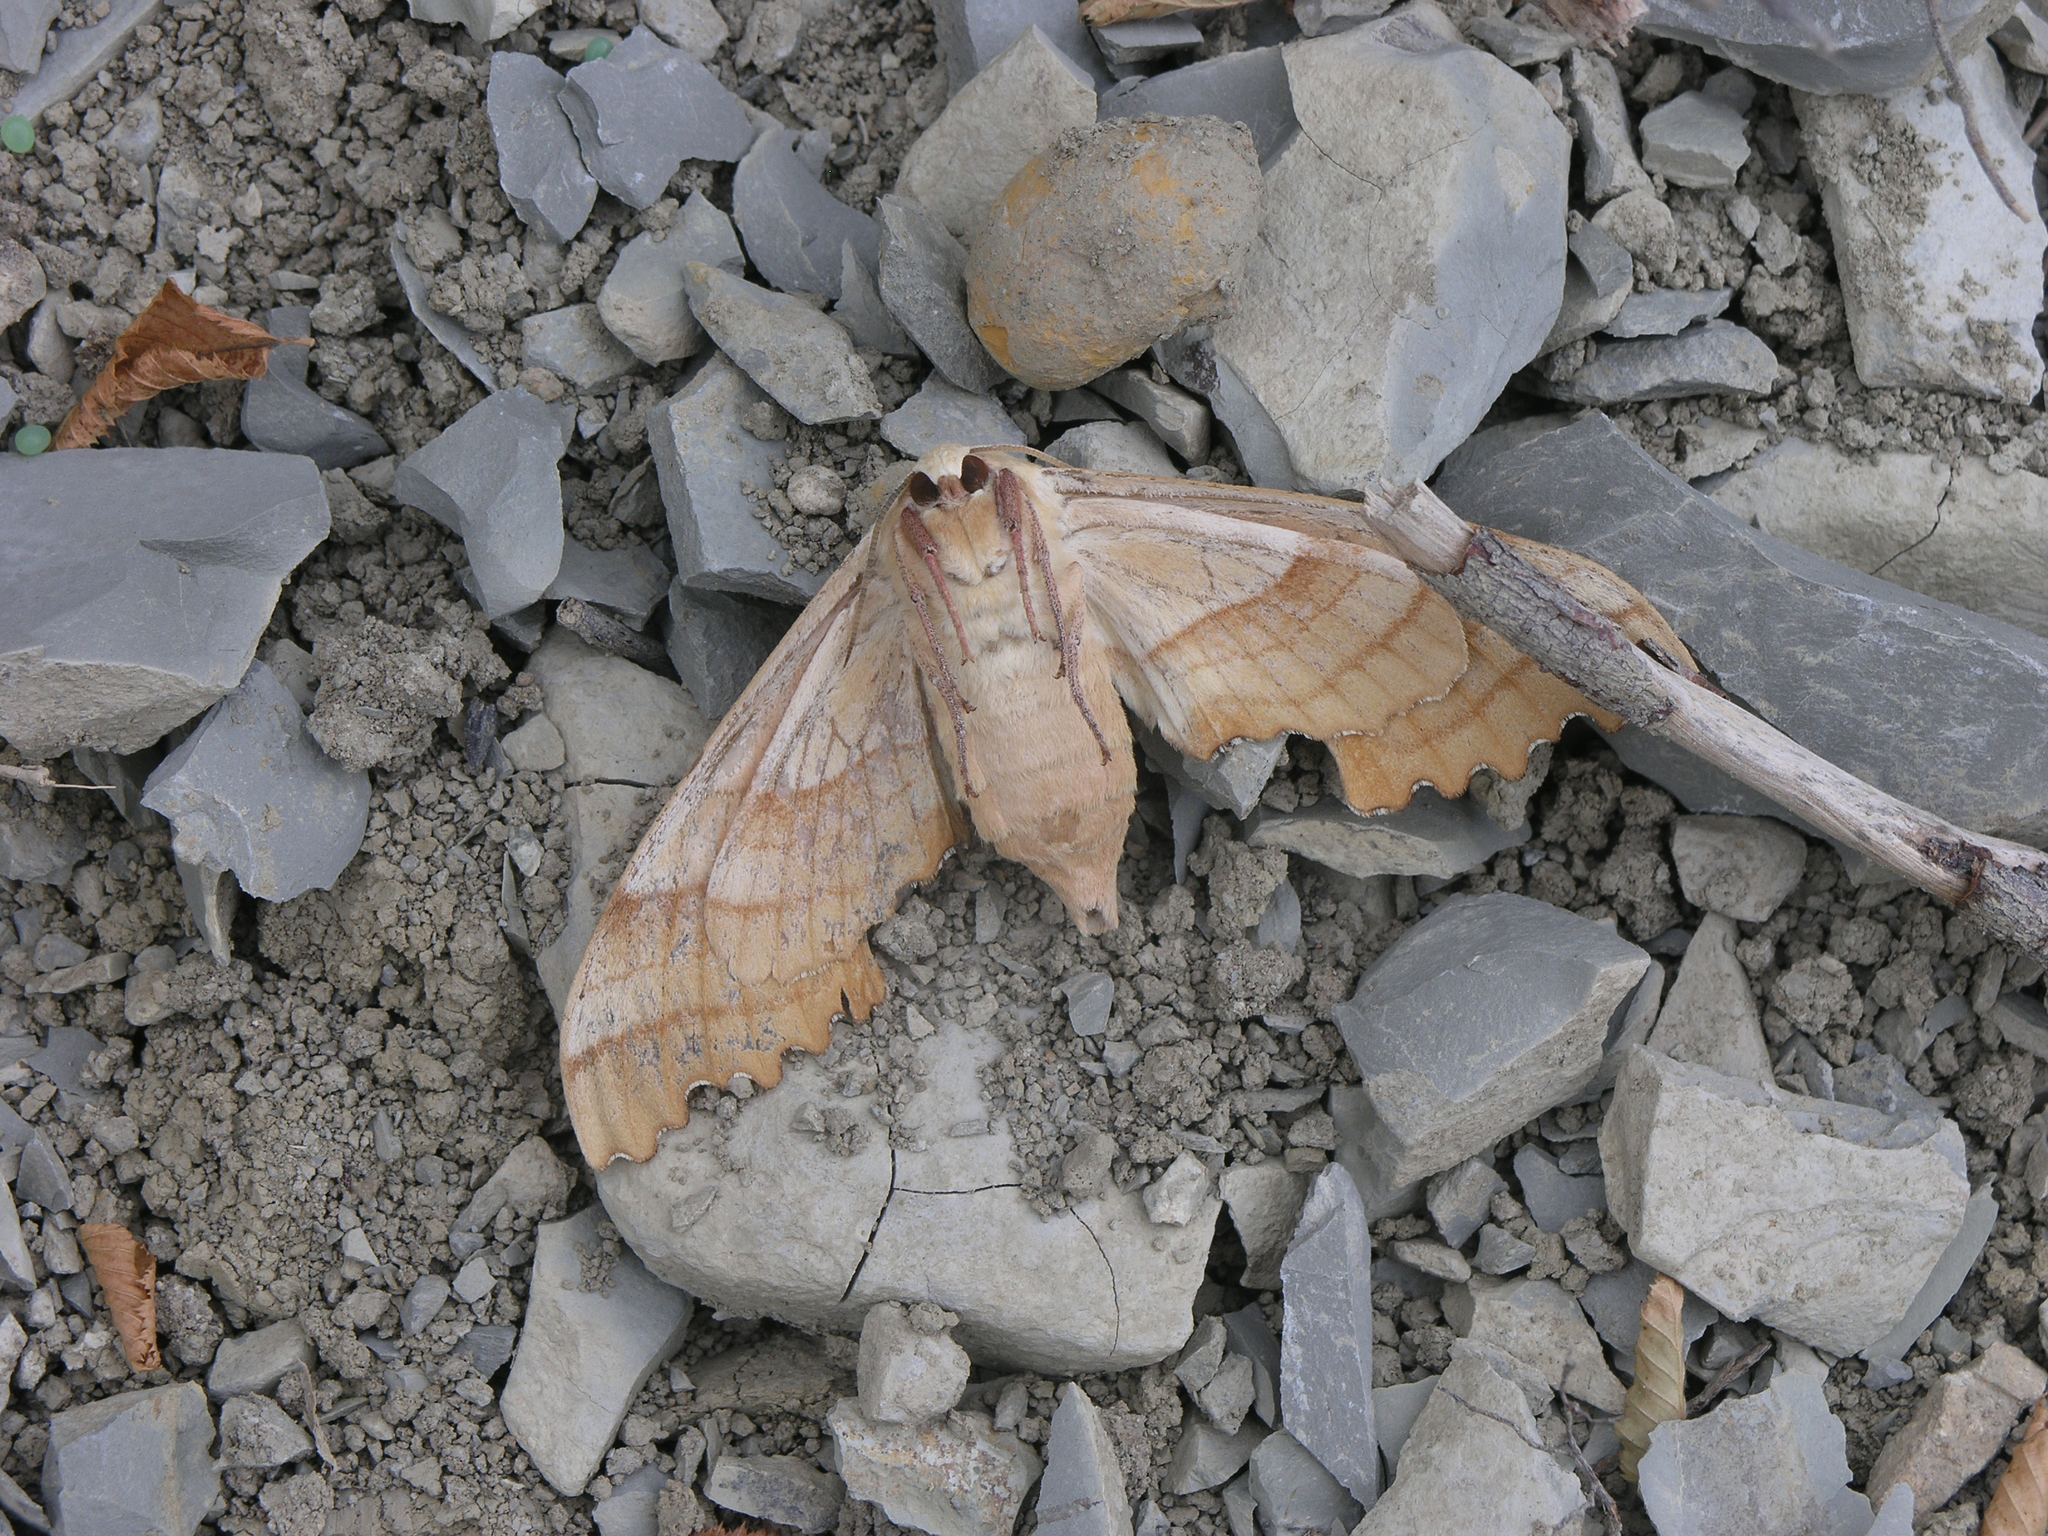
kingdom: Animalia
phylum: Arthropoda
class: Insecta
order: Lepidoptera
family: Sphingidae
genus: Marumba
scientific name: Marumba quercus
